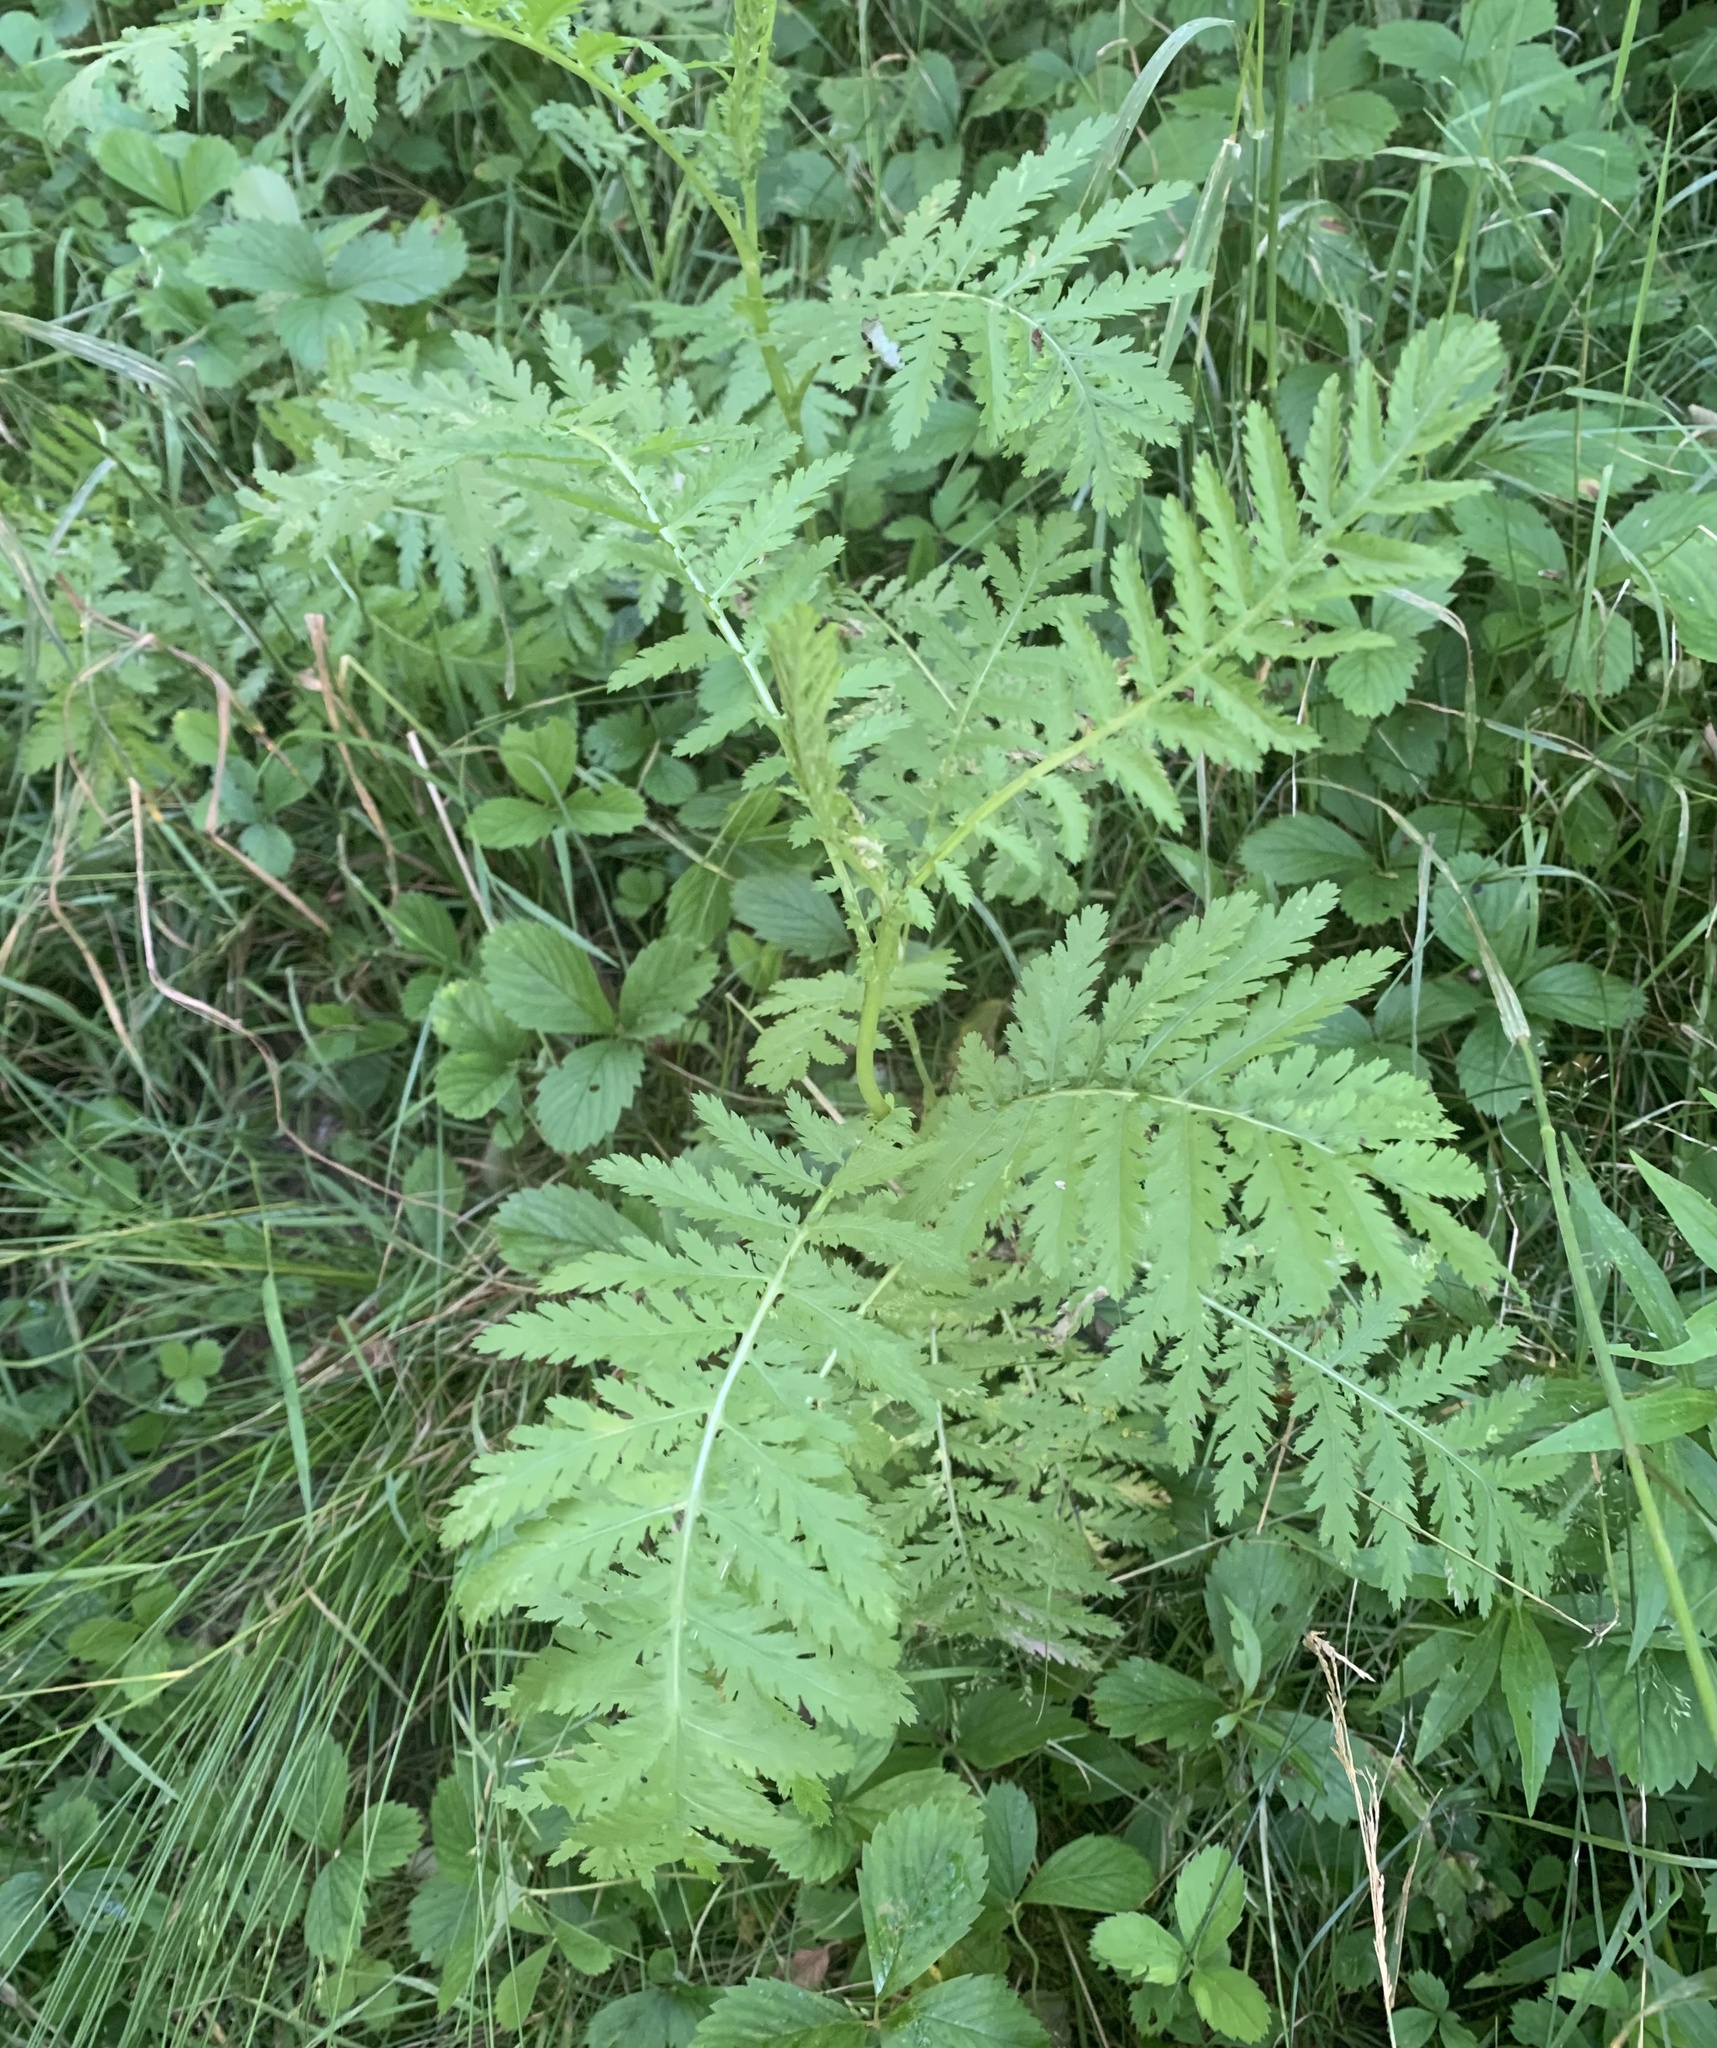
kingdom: Plantae
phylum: Tracheophyta
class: Magnoliopsida
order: Asterales
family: Asteraceae
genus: Tanacetum
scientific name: Tanacetum vulgare
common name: Common tansy
